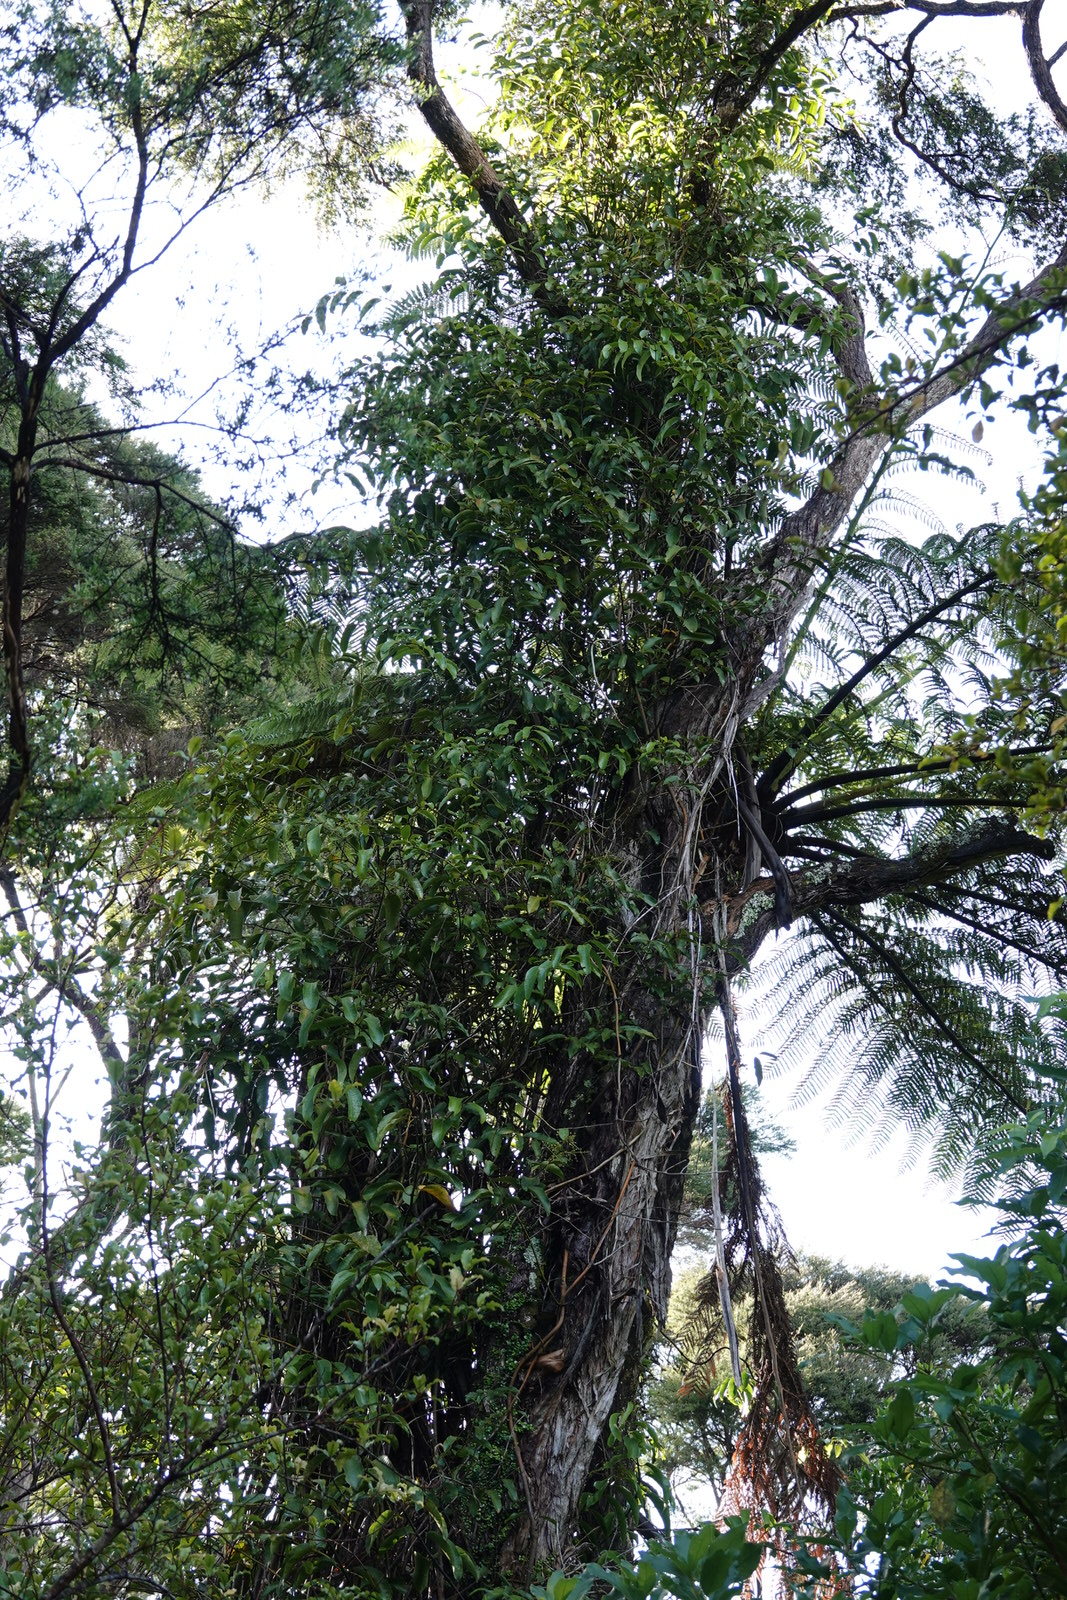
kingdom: Plantae
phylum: Tracheophyta
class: Liliopsida
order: Liliales
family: Ripogonaceae
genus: Ripogonum
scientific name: Ripogonum scandens
